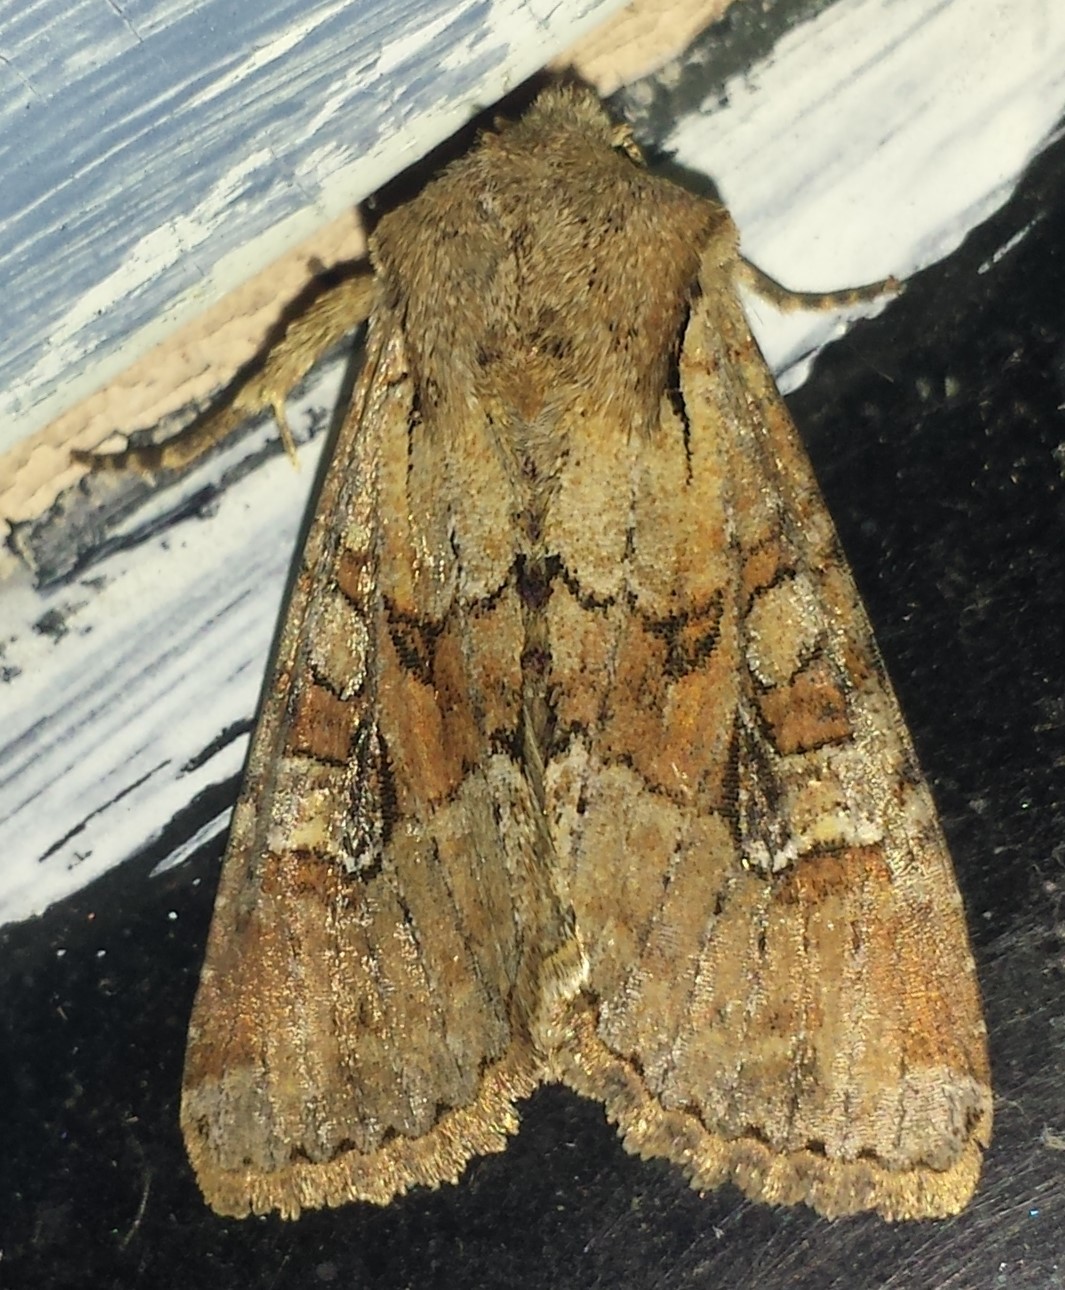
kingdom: Animalia
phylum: Arthropoda
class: Insecta
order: Lepidoptera
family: Noctuidae
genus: Apamea
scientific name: Apamea sordens
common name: Rustic shoulder-knot
